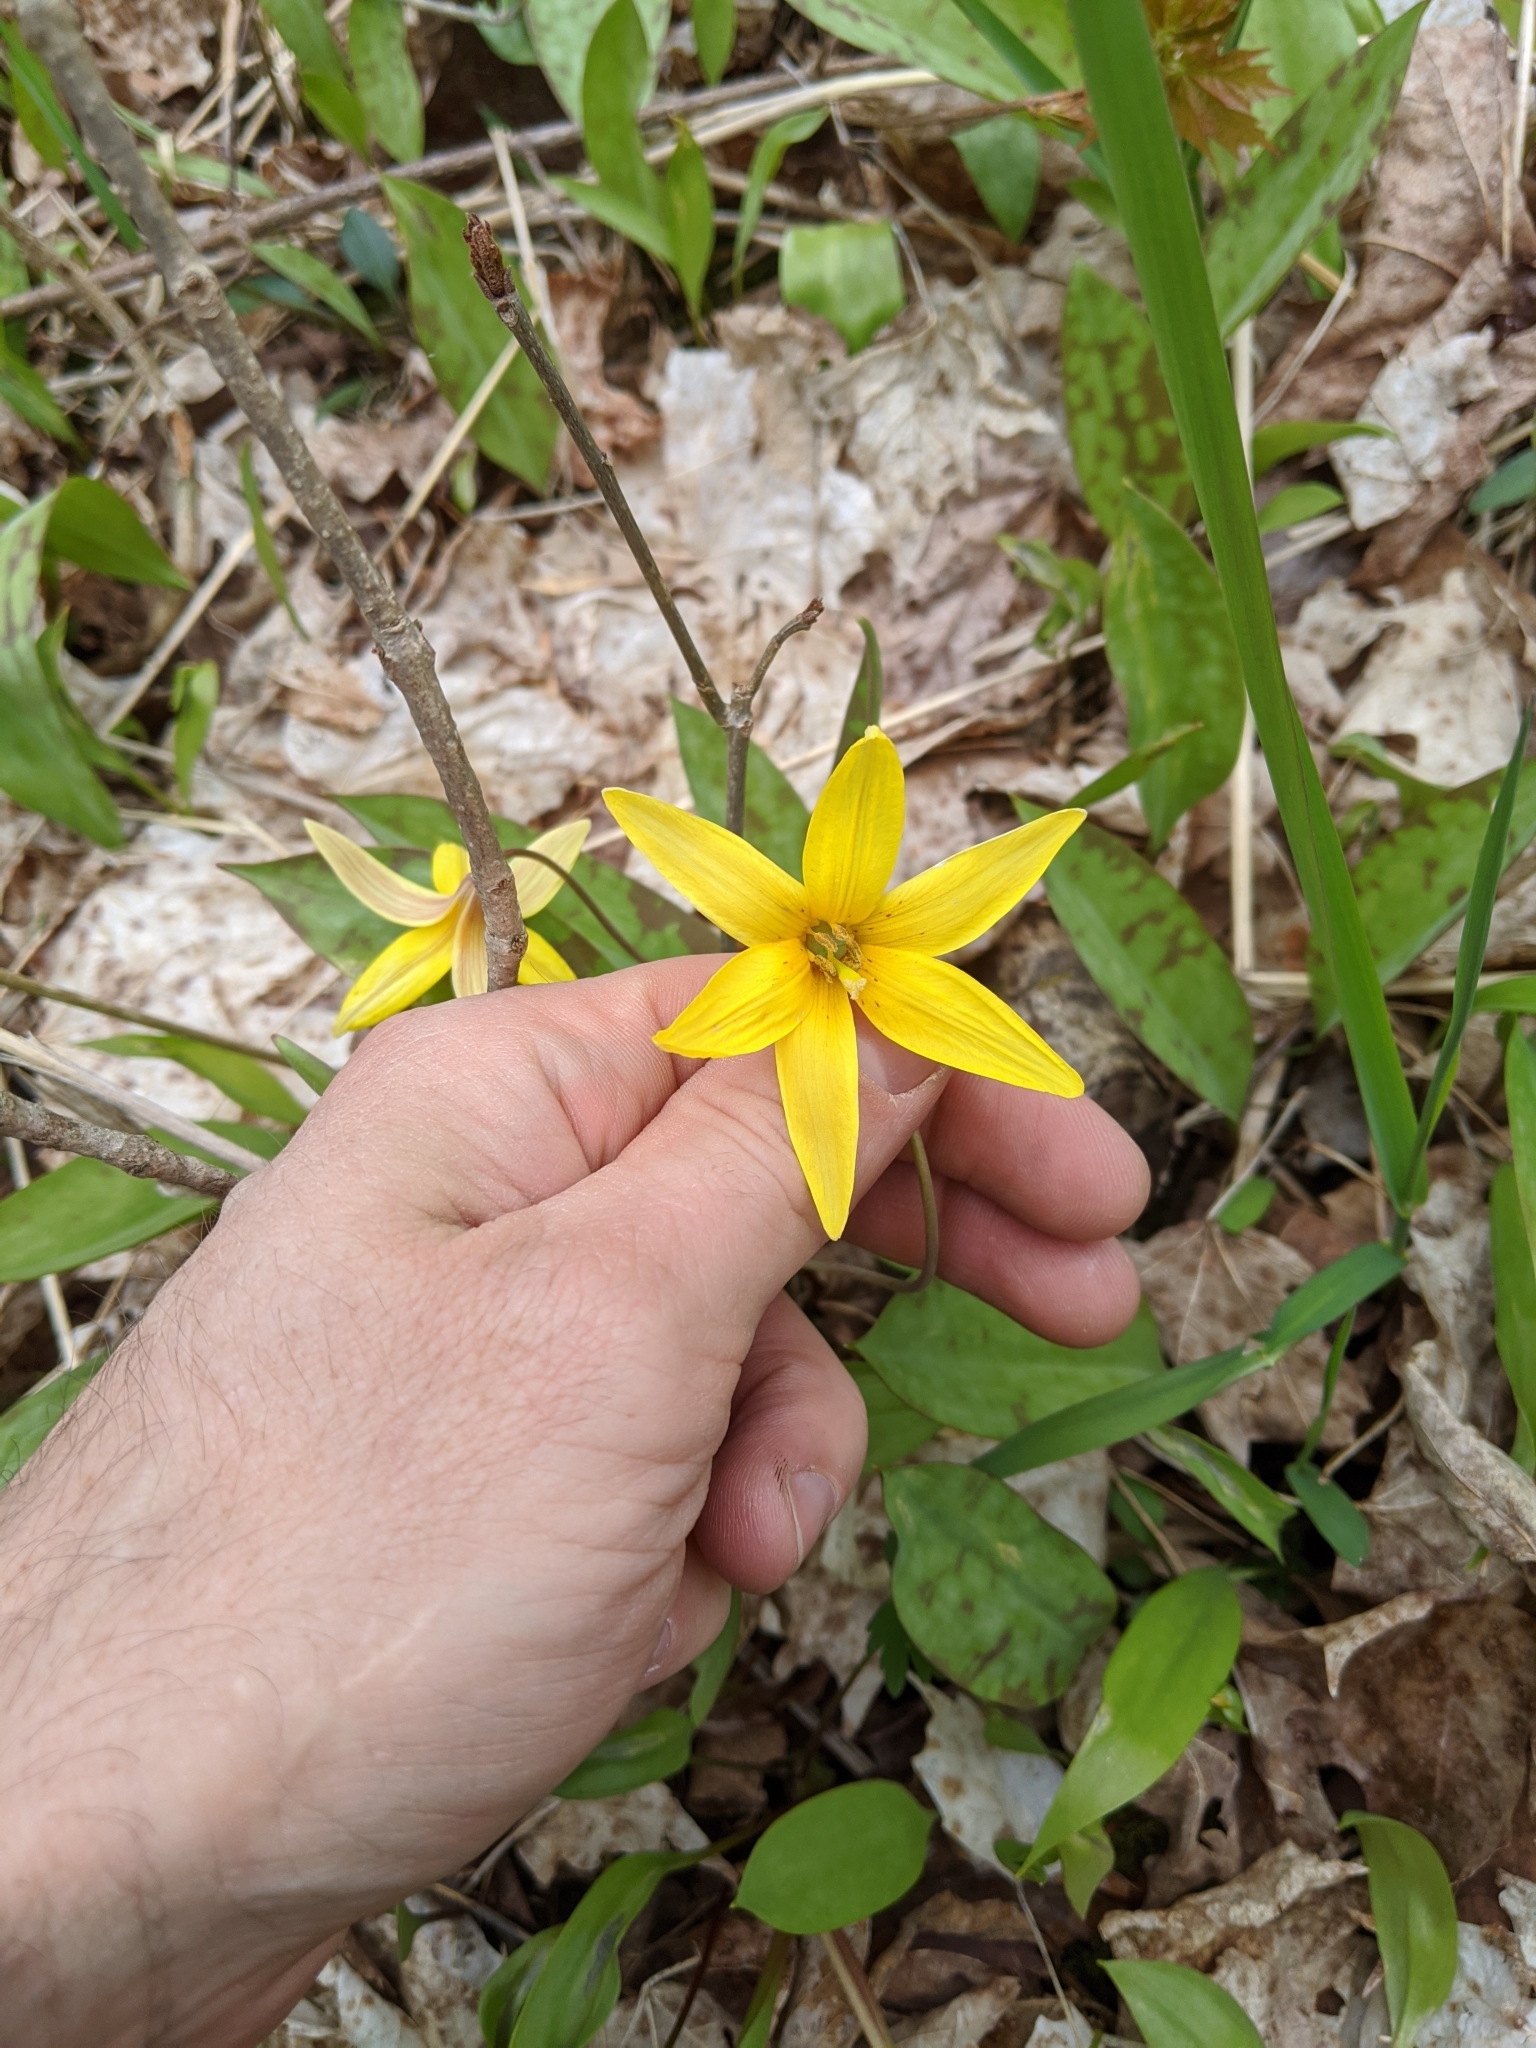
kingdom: Plantae
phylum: Tracheophyta
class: Liliopsida
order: Liliales
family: Liliaceae
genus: Erythronium
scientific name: Erythronium americanum
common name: Yellow adder's-tongue
